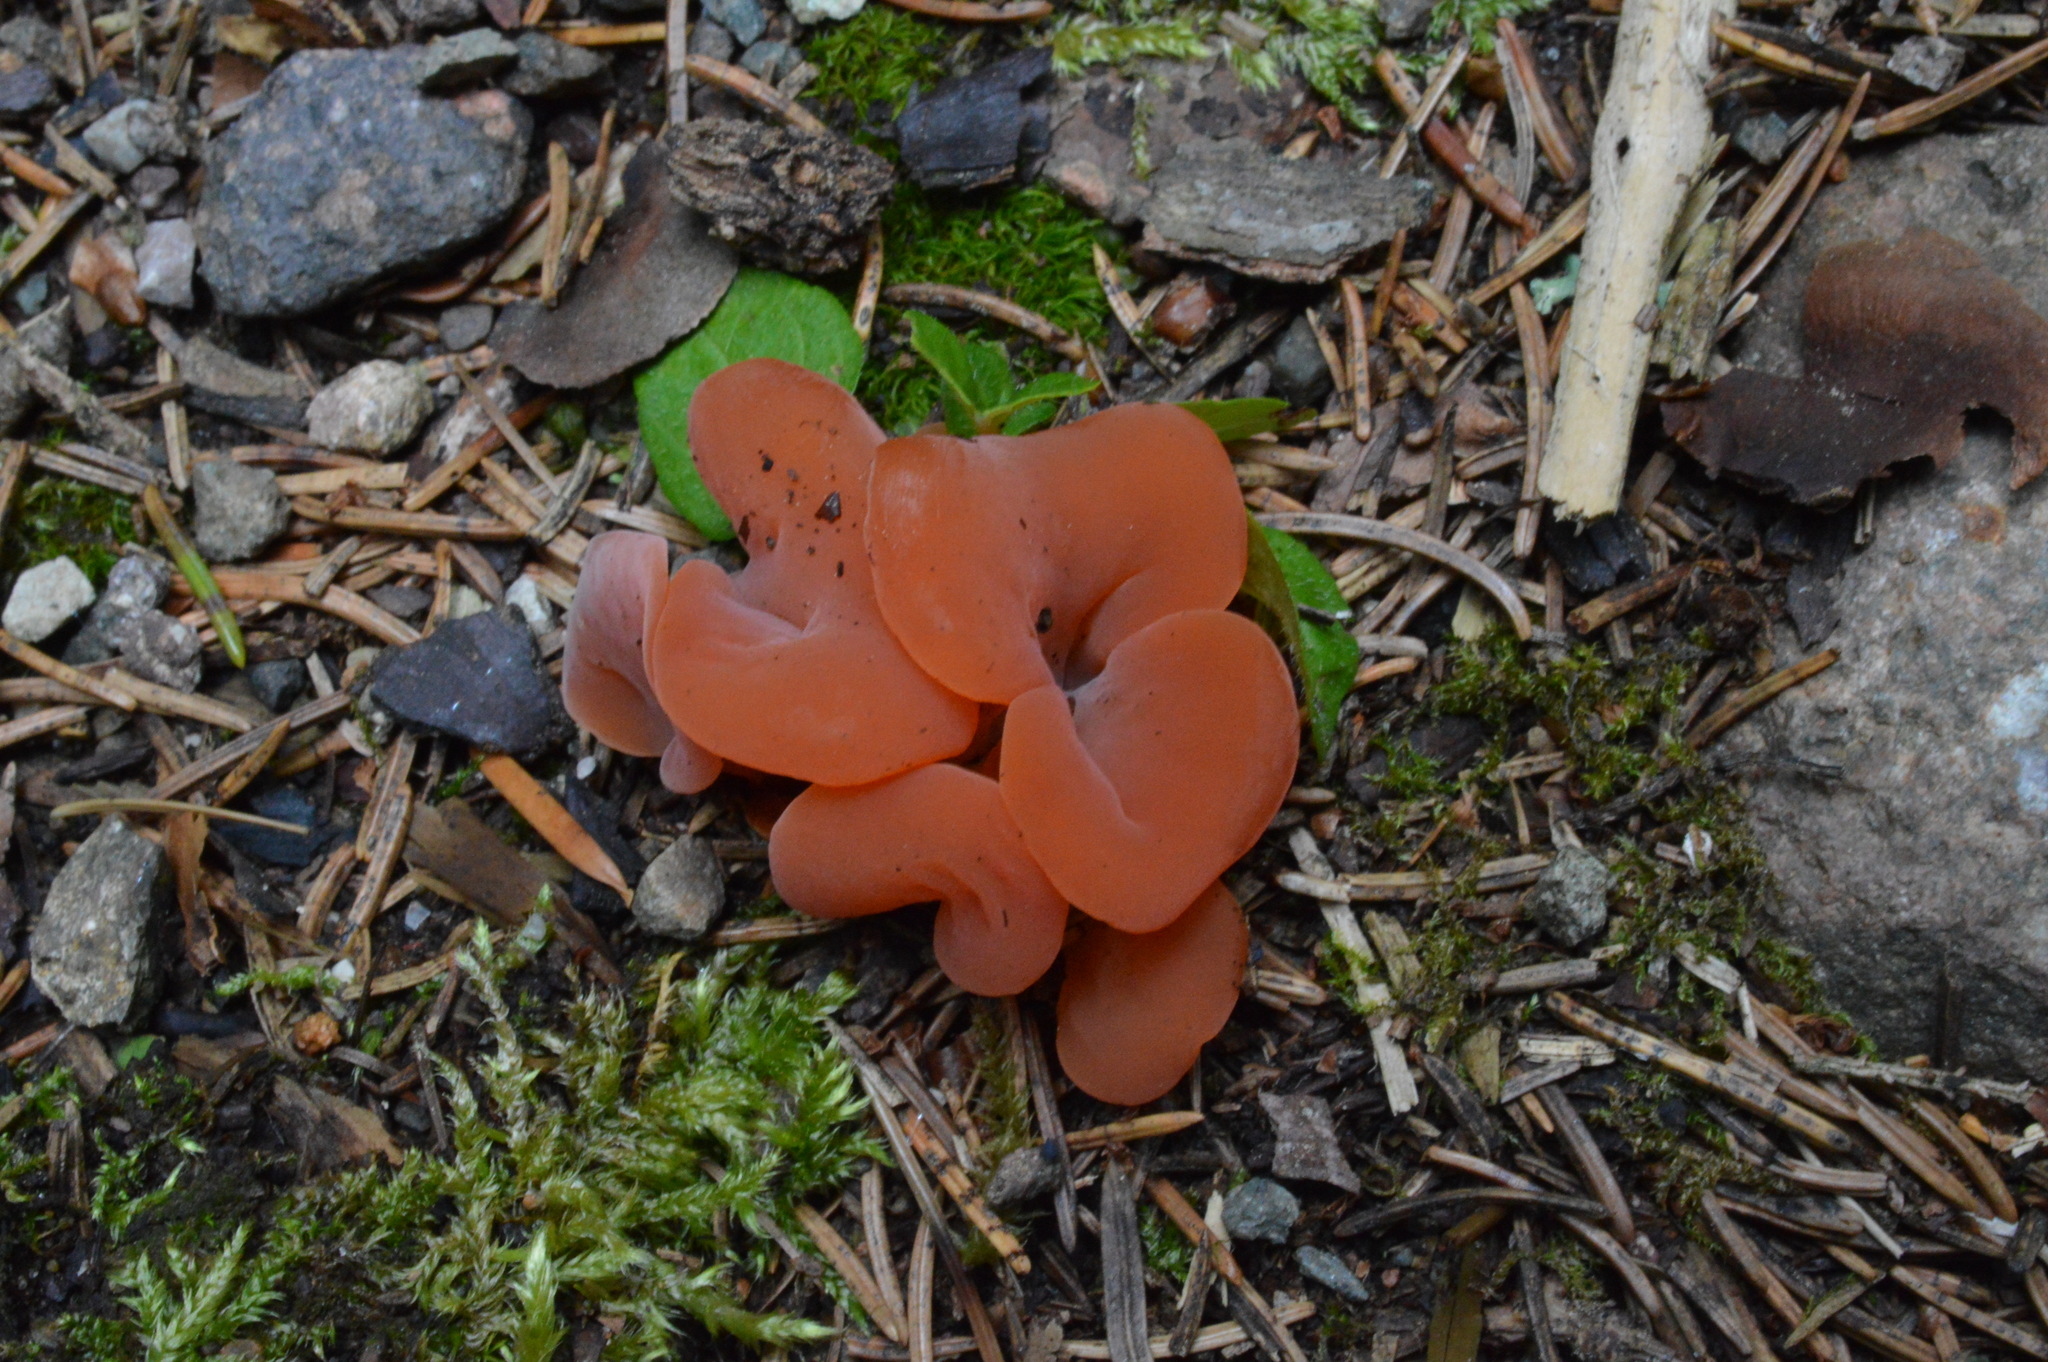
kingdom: Fungi
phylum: Basidiomycota
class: Agaricomycetes
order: Auriculariales
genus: Guepinia
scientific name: Guepinia helvelloides
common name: Salmon salad
